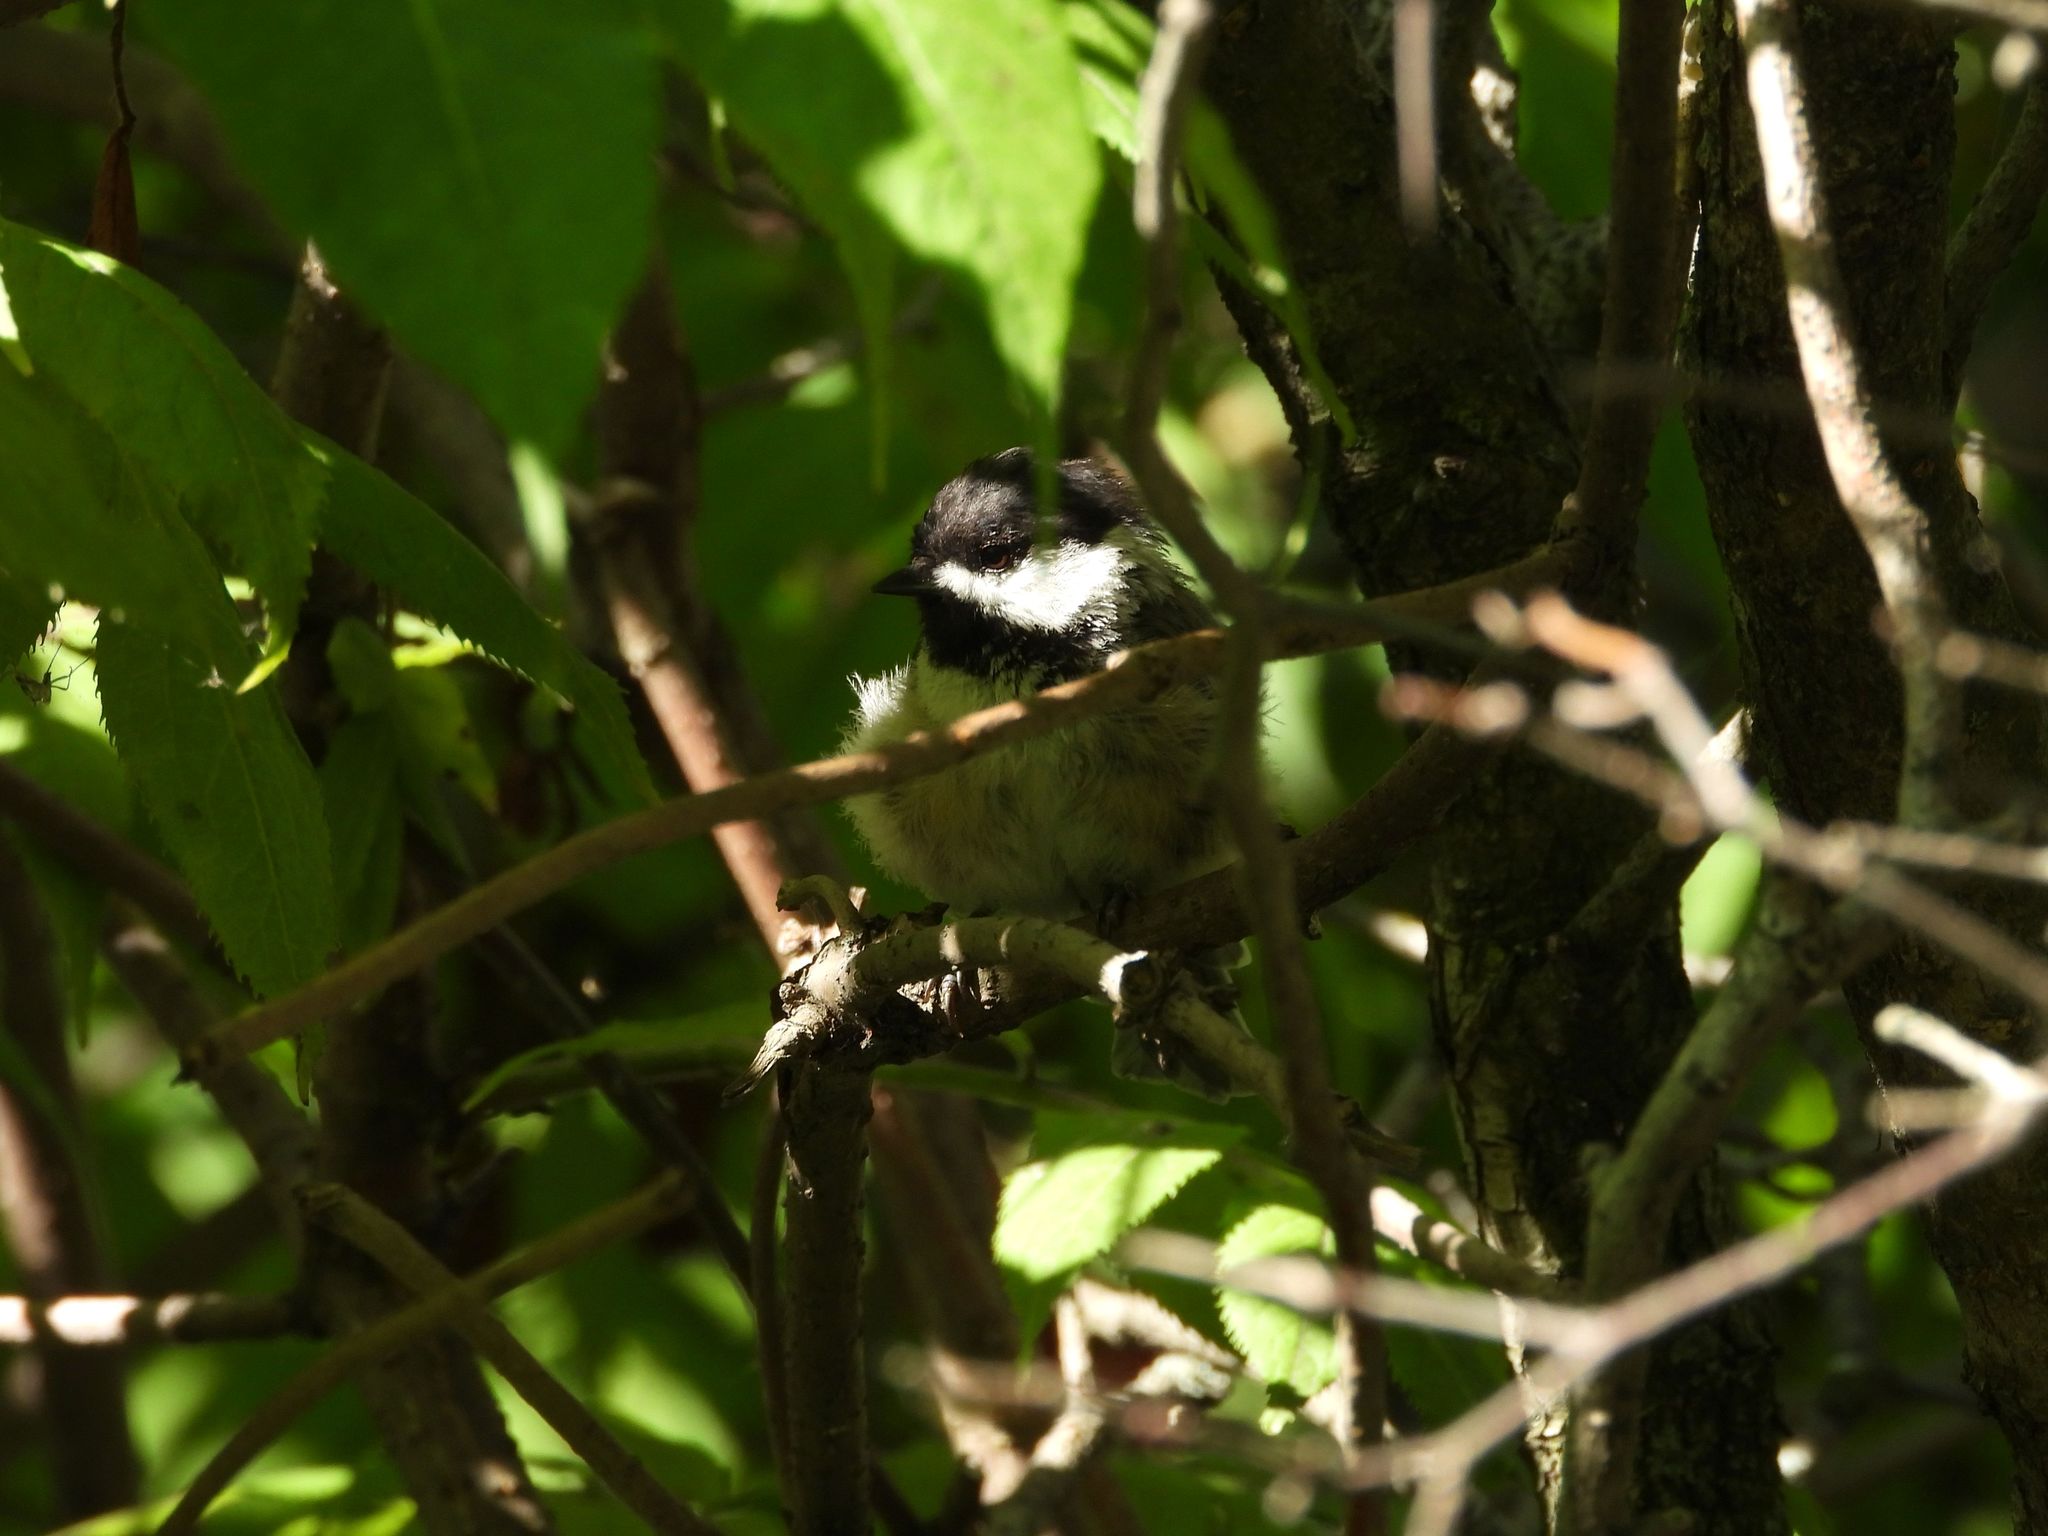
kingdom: Animalia
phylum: Chordata
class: Aves
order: Passeriformes
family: Paridae
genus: Poecile
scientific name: Poecile atricapillus
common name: Black-capped chickadee
